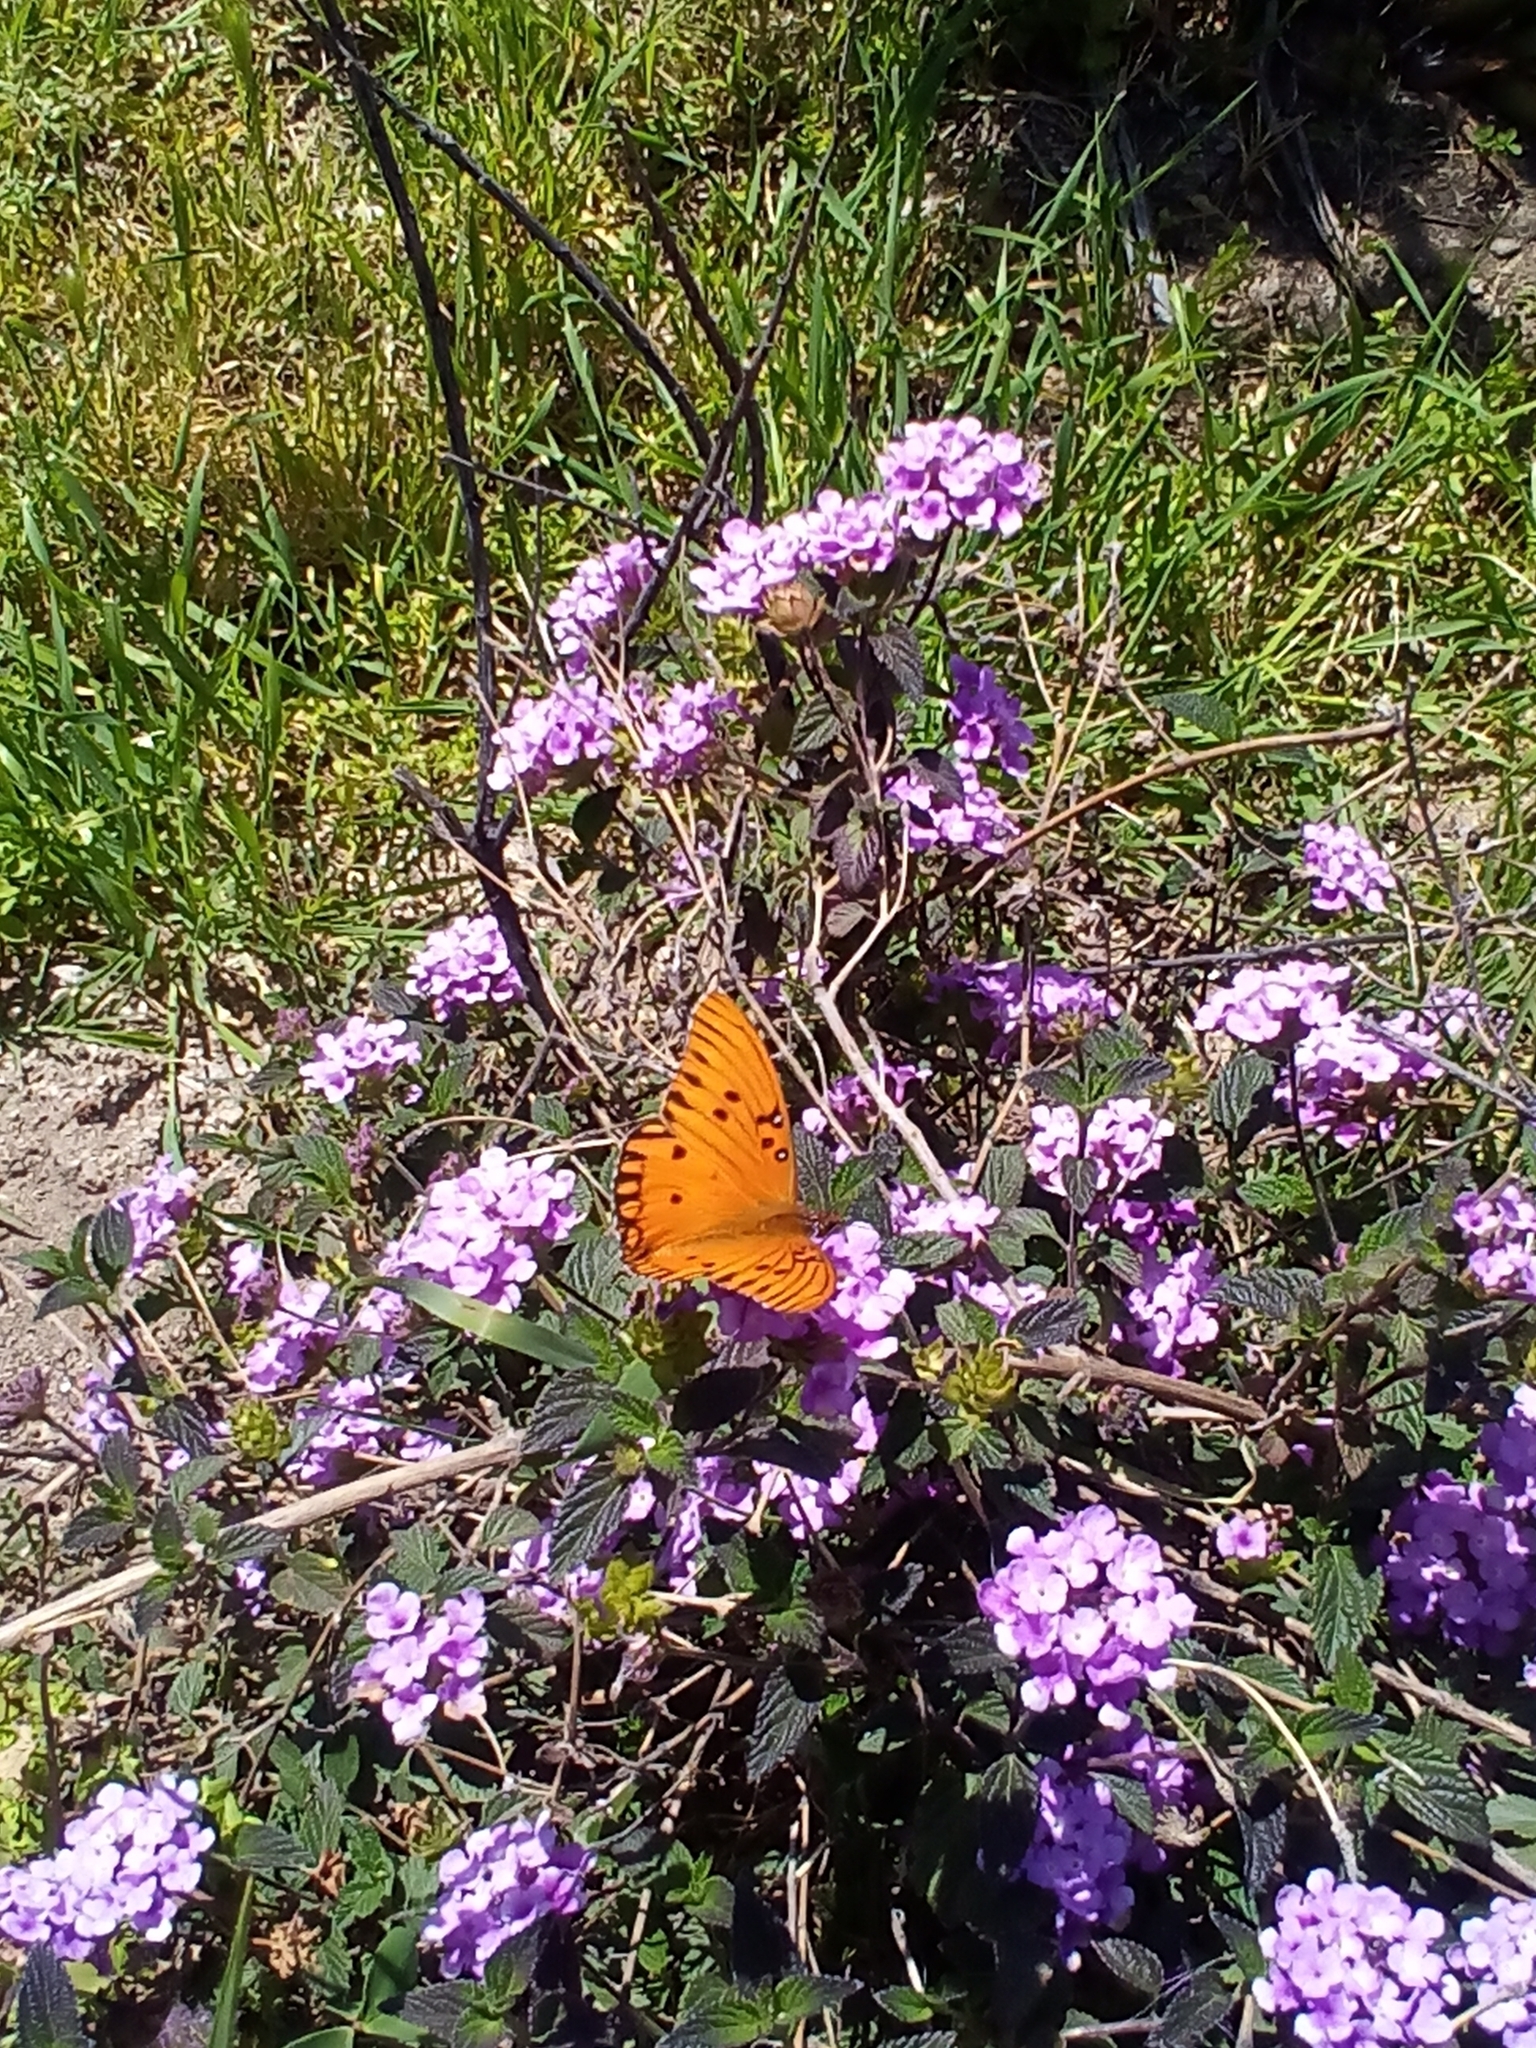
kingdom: Animalia
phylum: Arthropoda
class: Insecta
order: Lepidoptera
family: Nymphalidae
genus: Dione
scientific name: Dione vanillae
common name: Gulf fritillary
